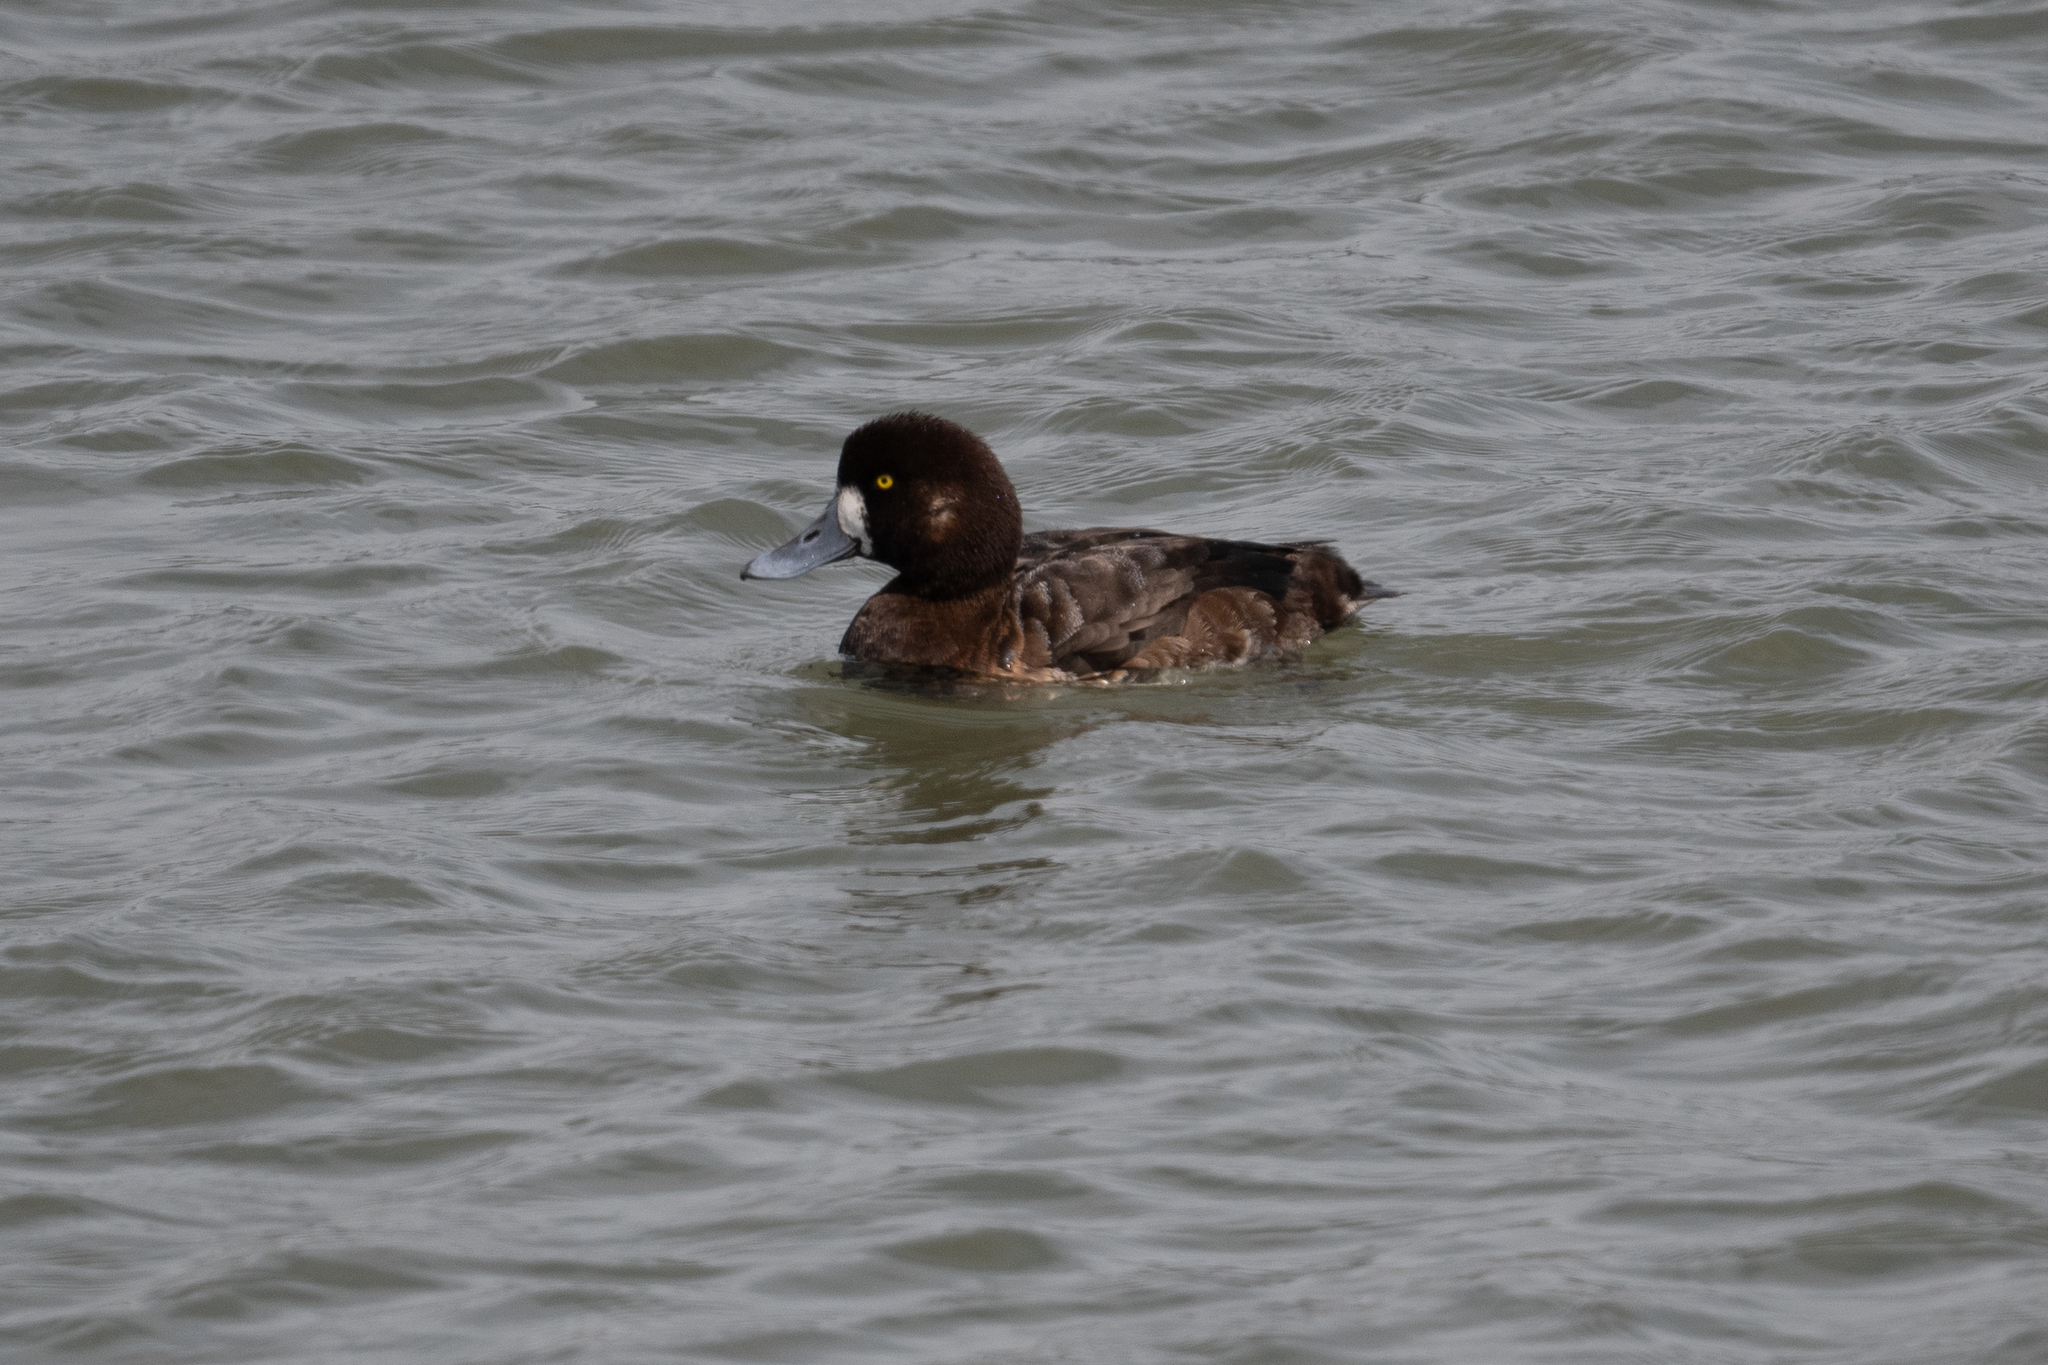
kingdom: Animalia
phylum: Chordata
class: Aves
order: Anseriformes
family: Anatidae
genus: Aythya
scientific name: Aythya marila
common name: Greater scaup
